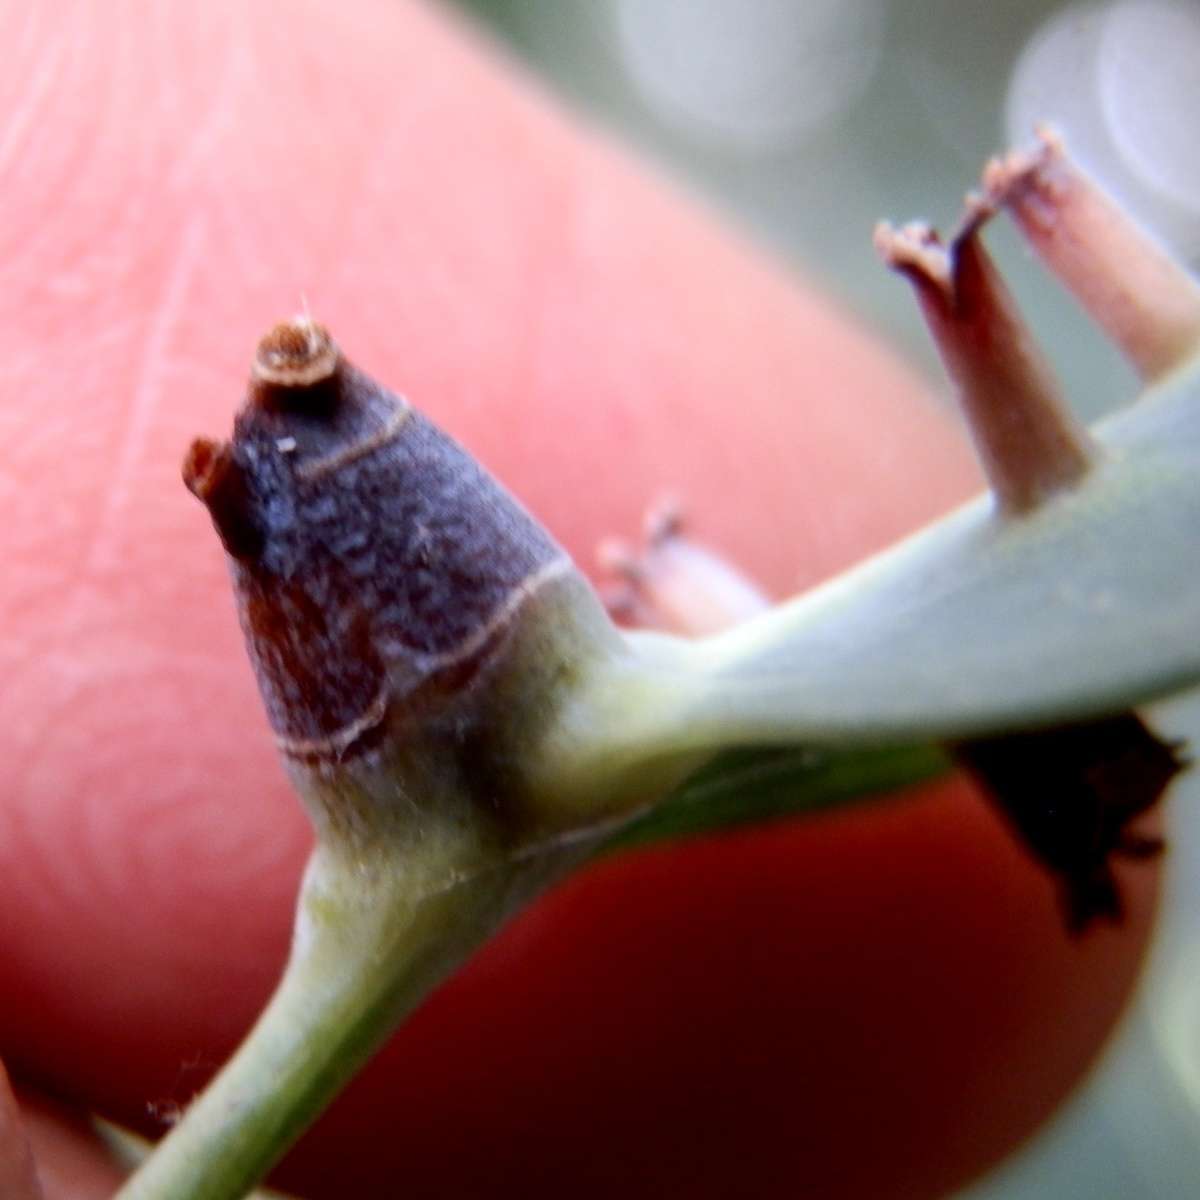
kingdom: Animalia
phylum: Arthropoda
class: Insecta
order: Hemiptera
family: Eriococcidae
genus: Opisthoscelis
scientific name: Opisthoscelis maculata
